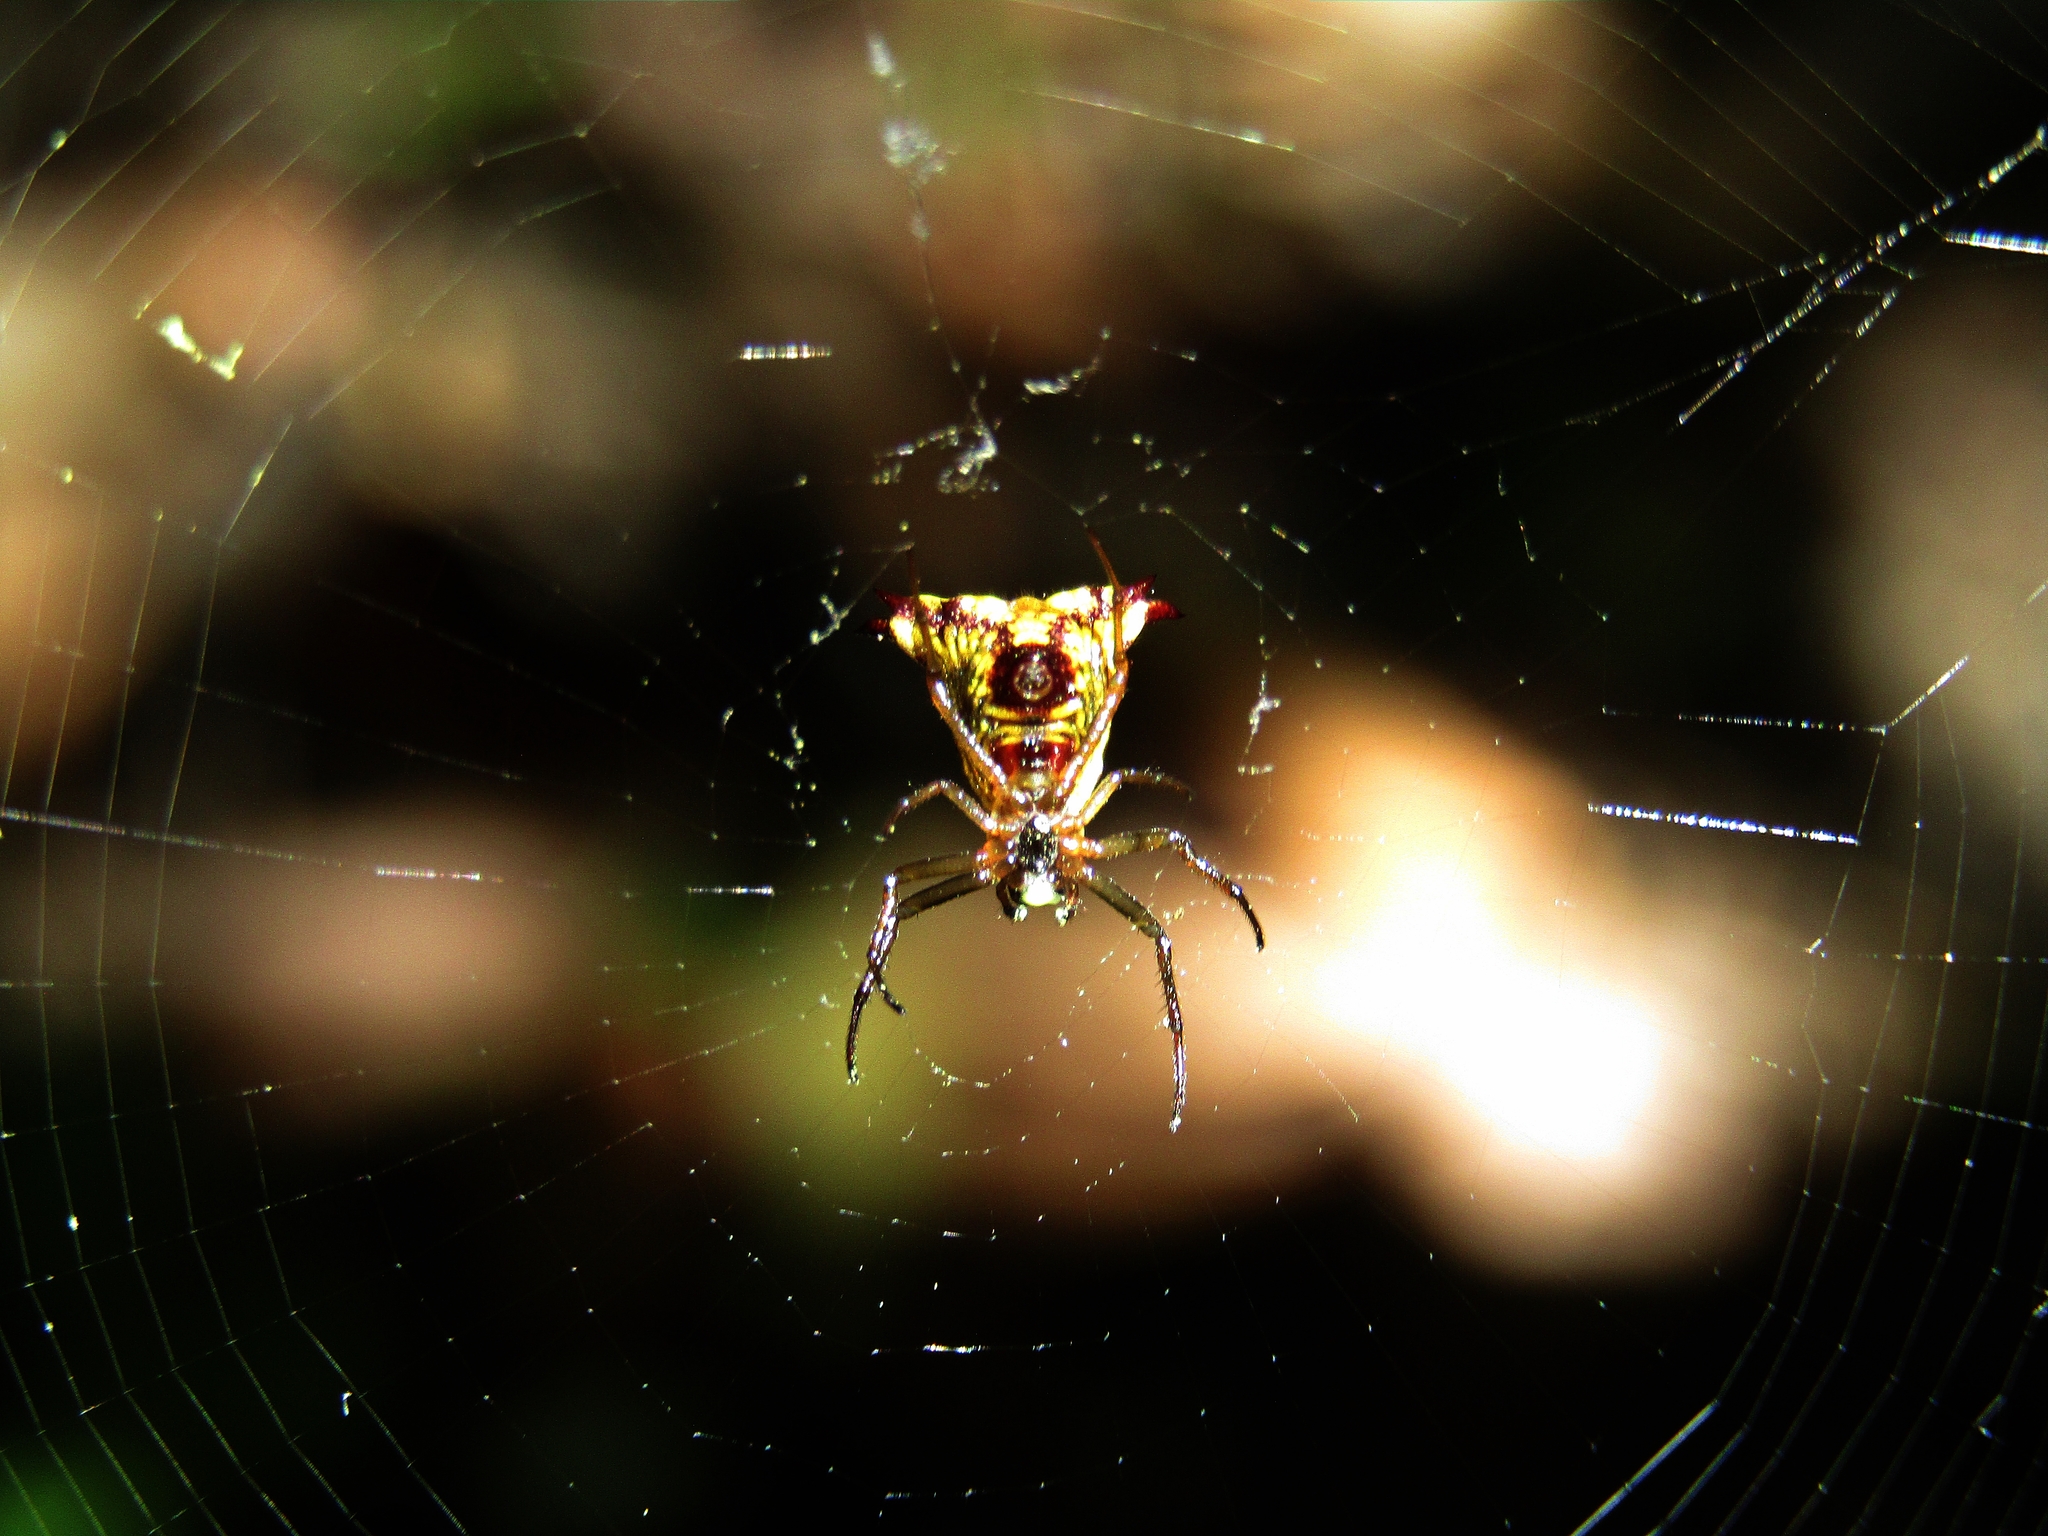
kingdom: Animalia
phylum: Arthropoda
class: Arachnida
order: Araneae
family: Araneidae
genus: Micrathena
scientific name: Micrathena furva
